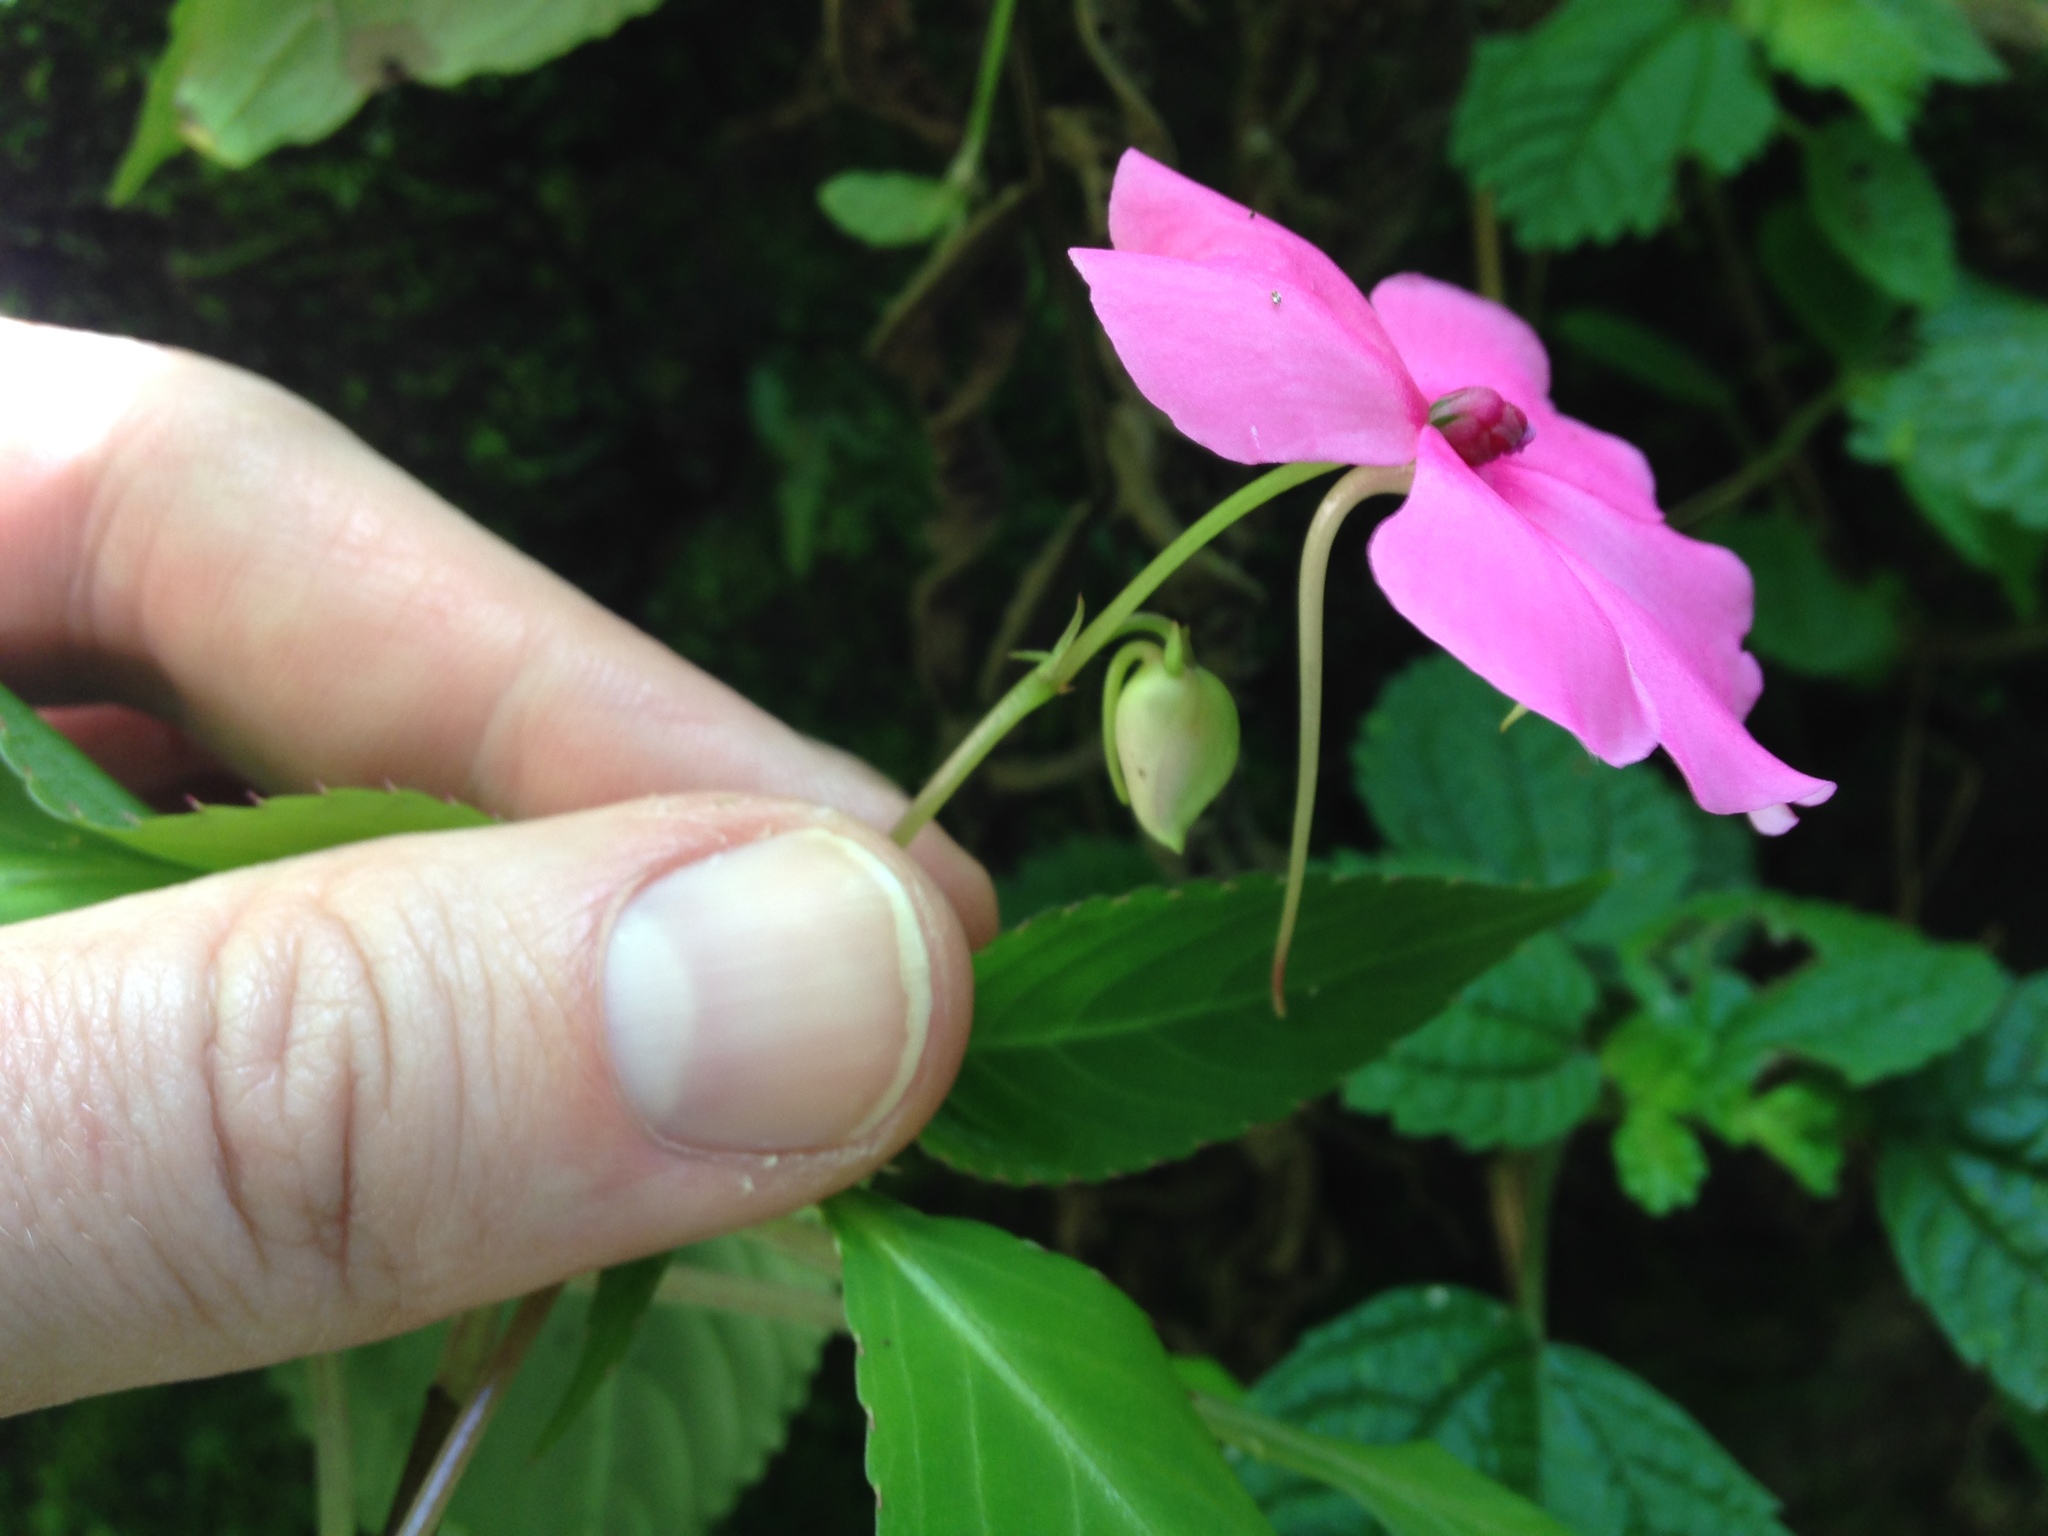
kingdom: Plantae
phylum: Tracheophyta
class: Magnoliopsida
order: Ericales
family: Balsaminaceae
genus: Impatiens
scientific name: Impatiens walleriana
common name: Buzzy lizzy
